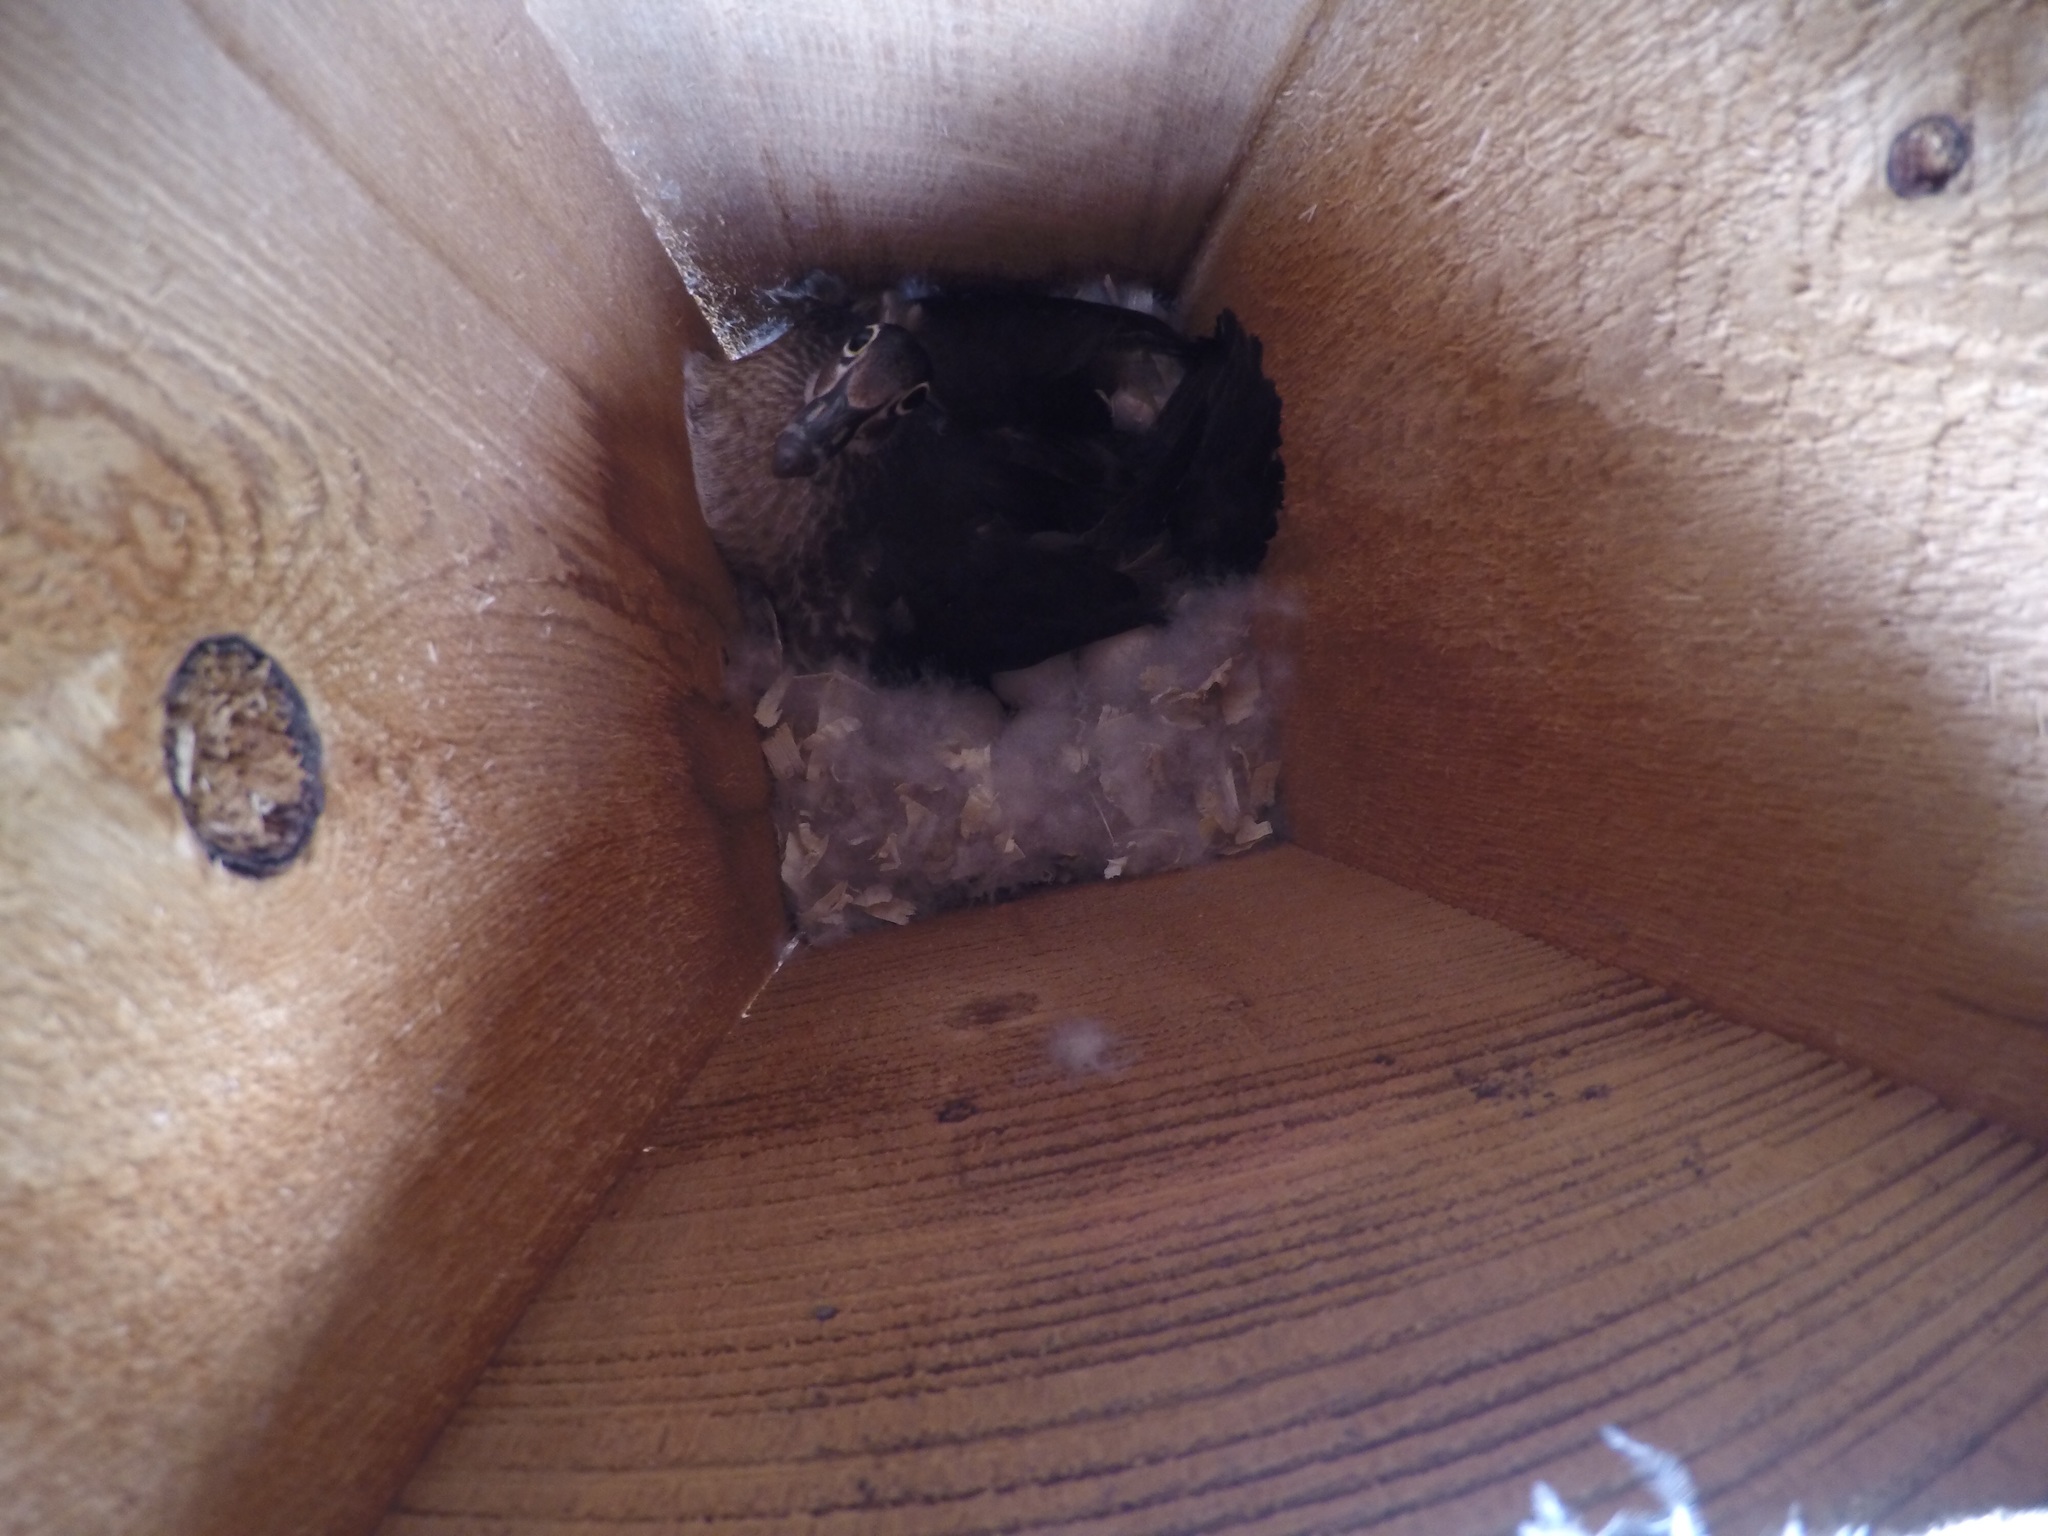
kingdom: Animalia
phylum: Chordata
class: Aves
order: Anseriformes
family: Anatidae
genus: Aix
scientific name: Aix sponsa
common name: Wood duck
